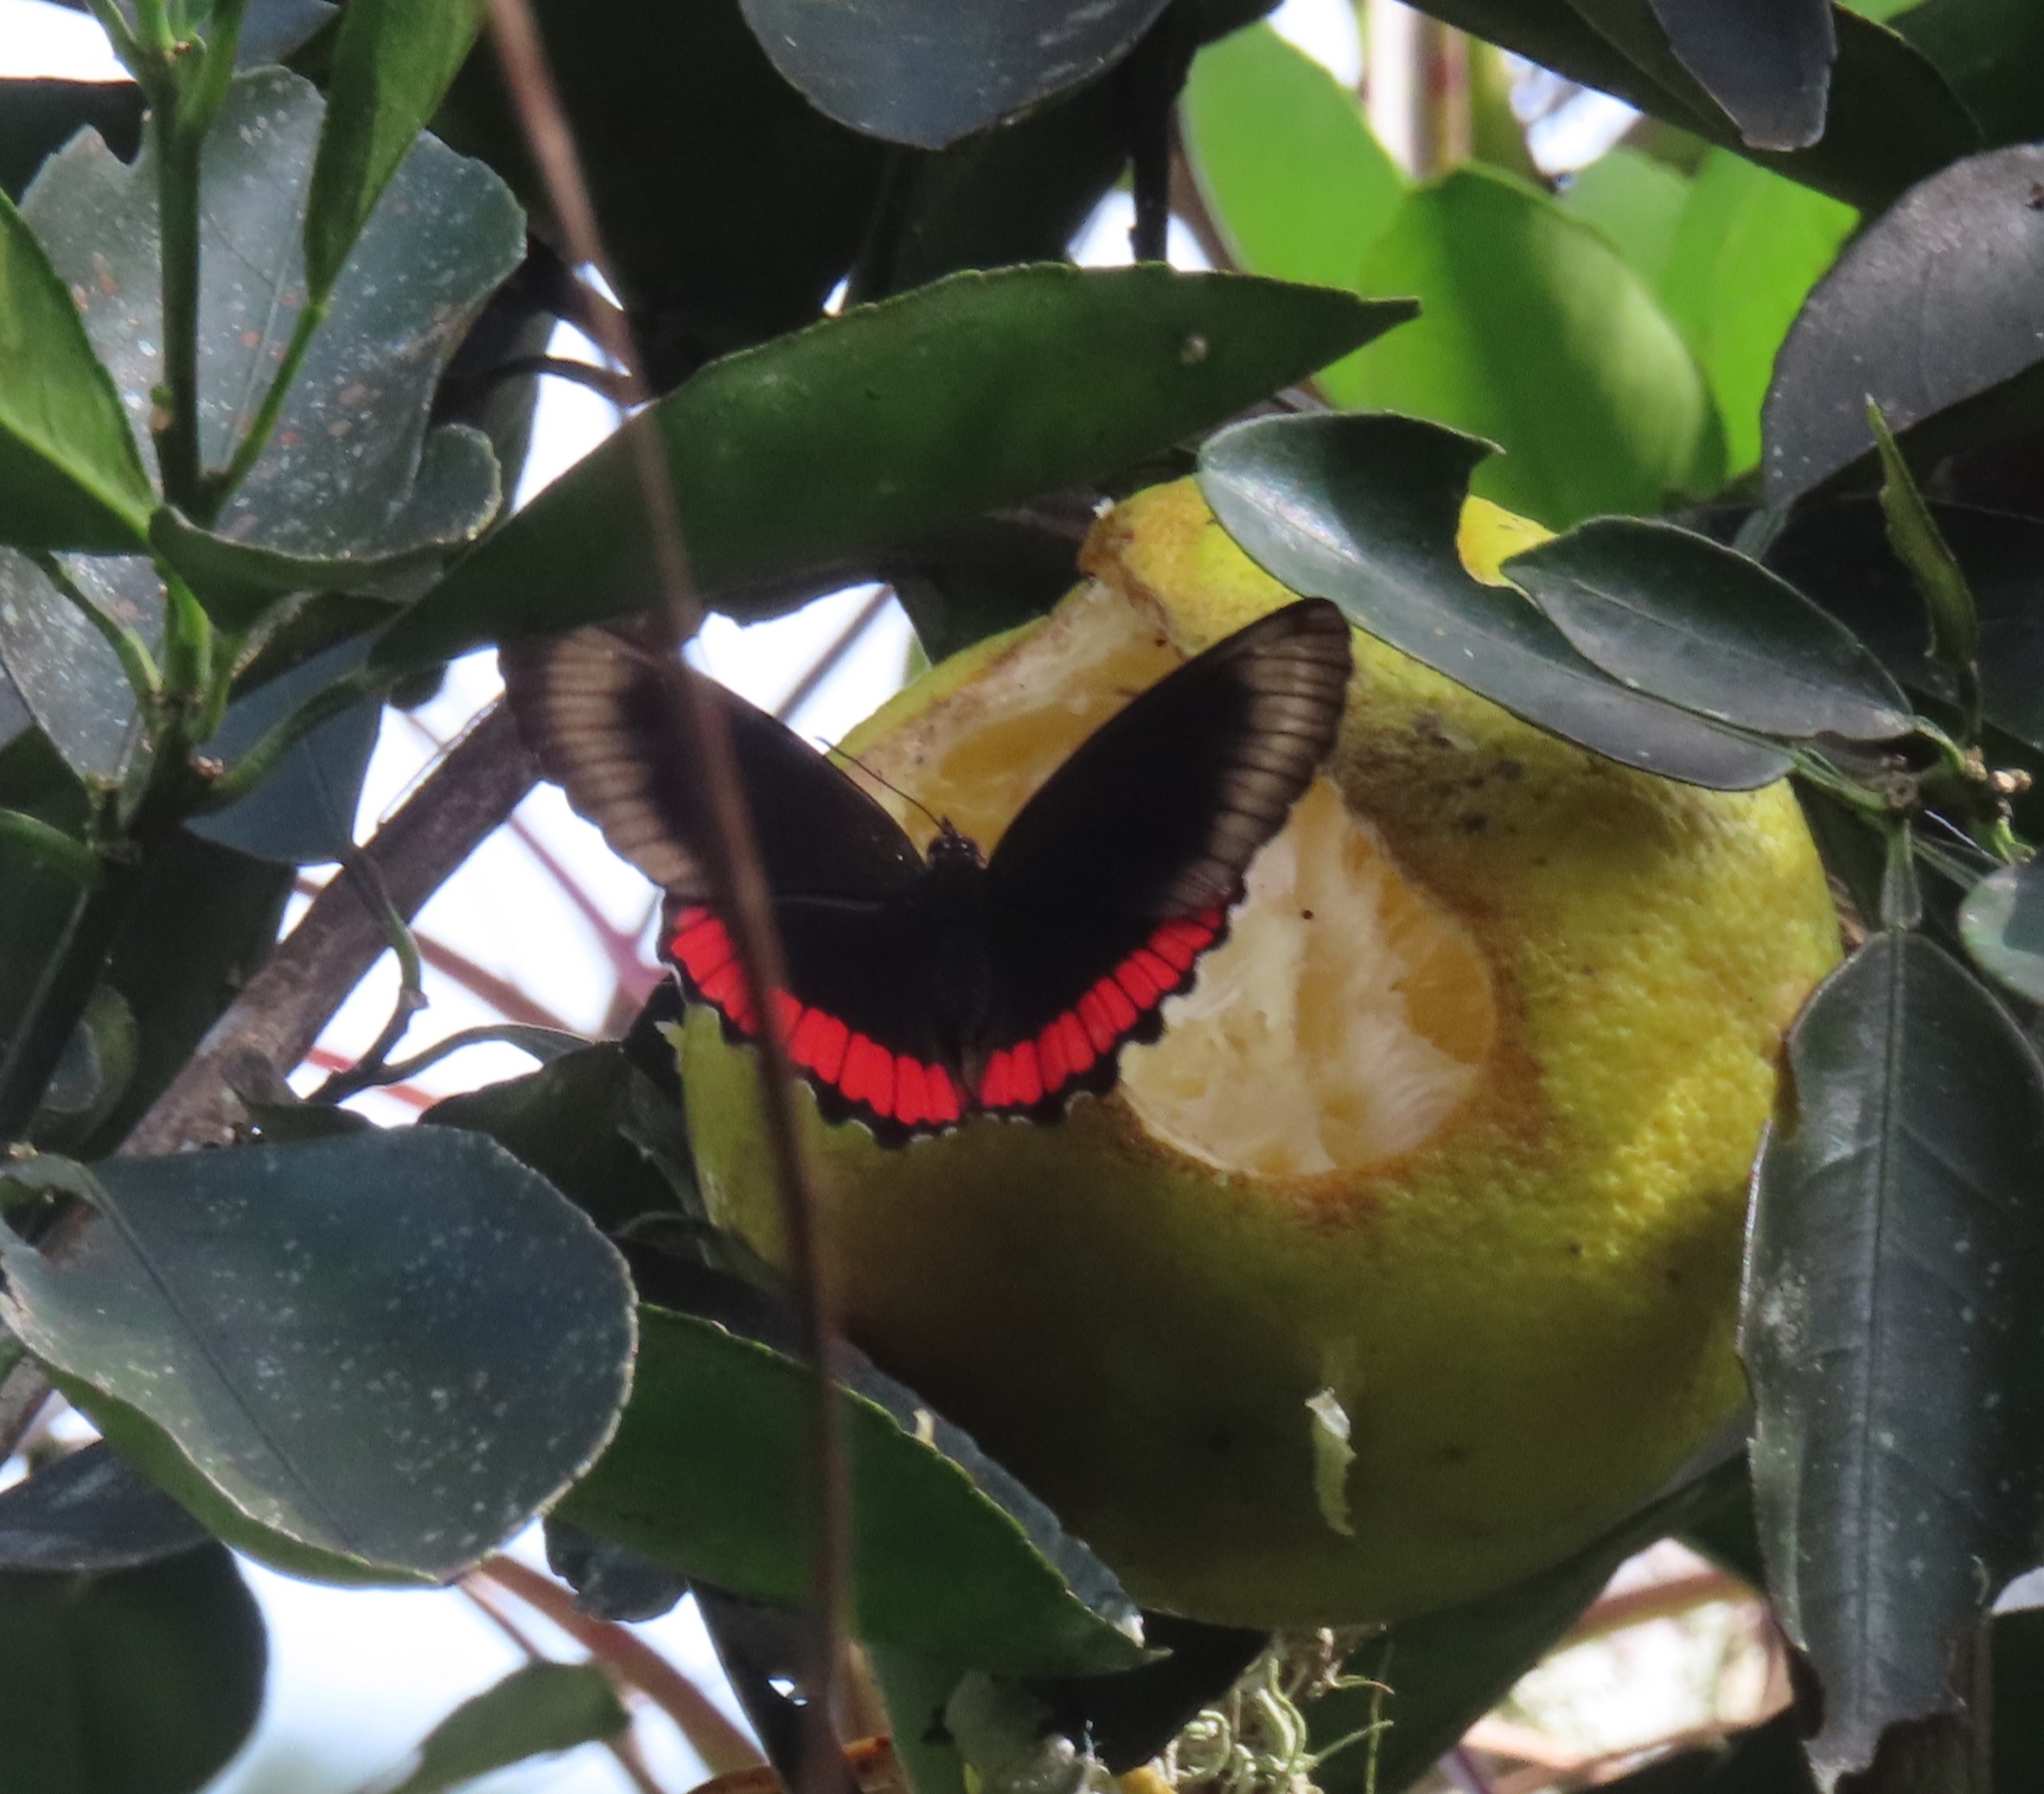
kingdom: Animalia
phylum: Arthropoda
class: Insecta
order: Lepidoptera
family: Sesiidae
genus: Sesia
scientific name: Sesia Biblis hyperia
